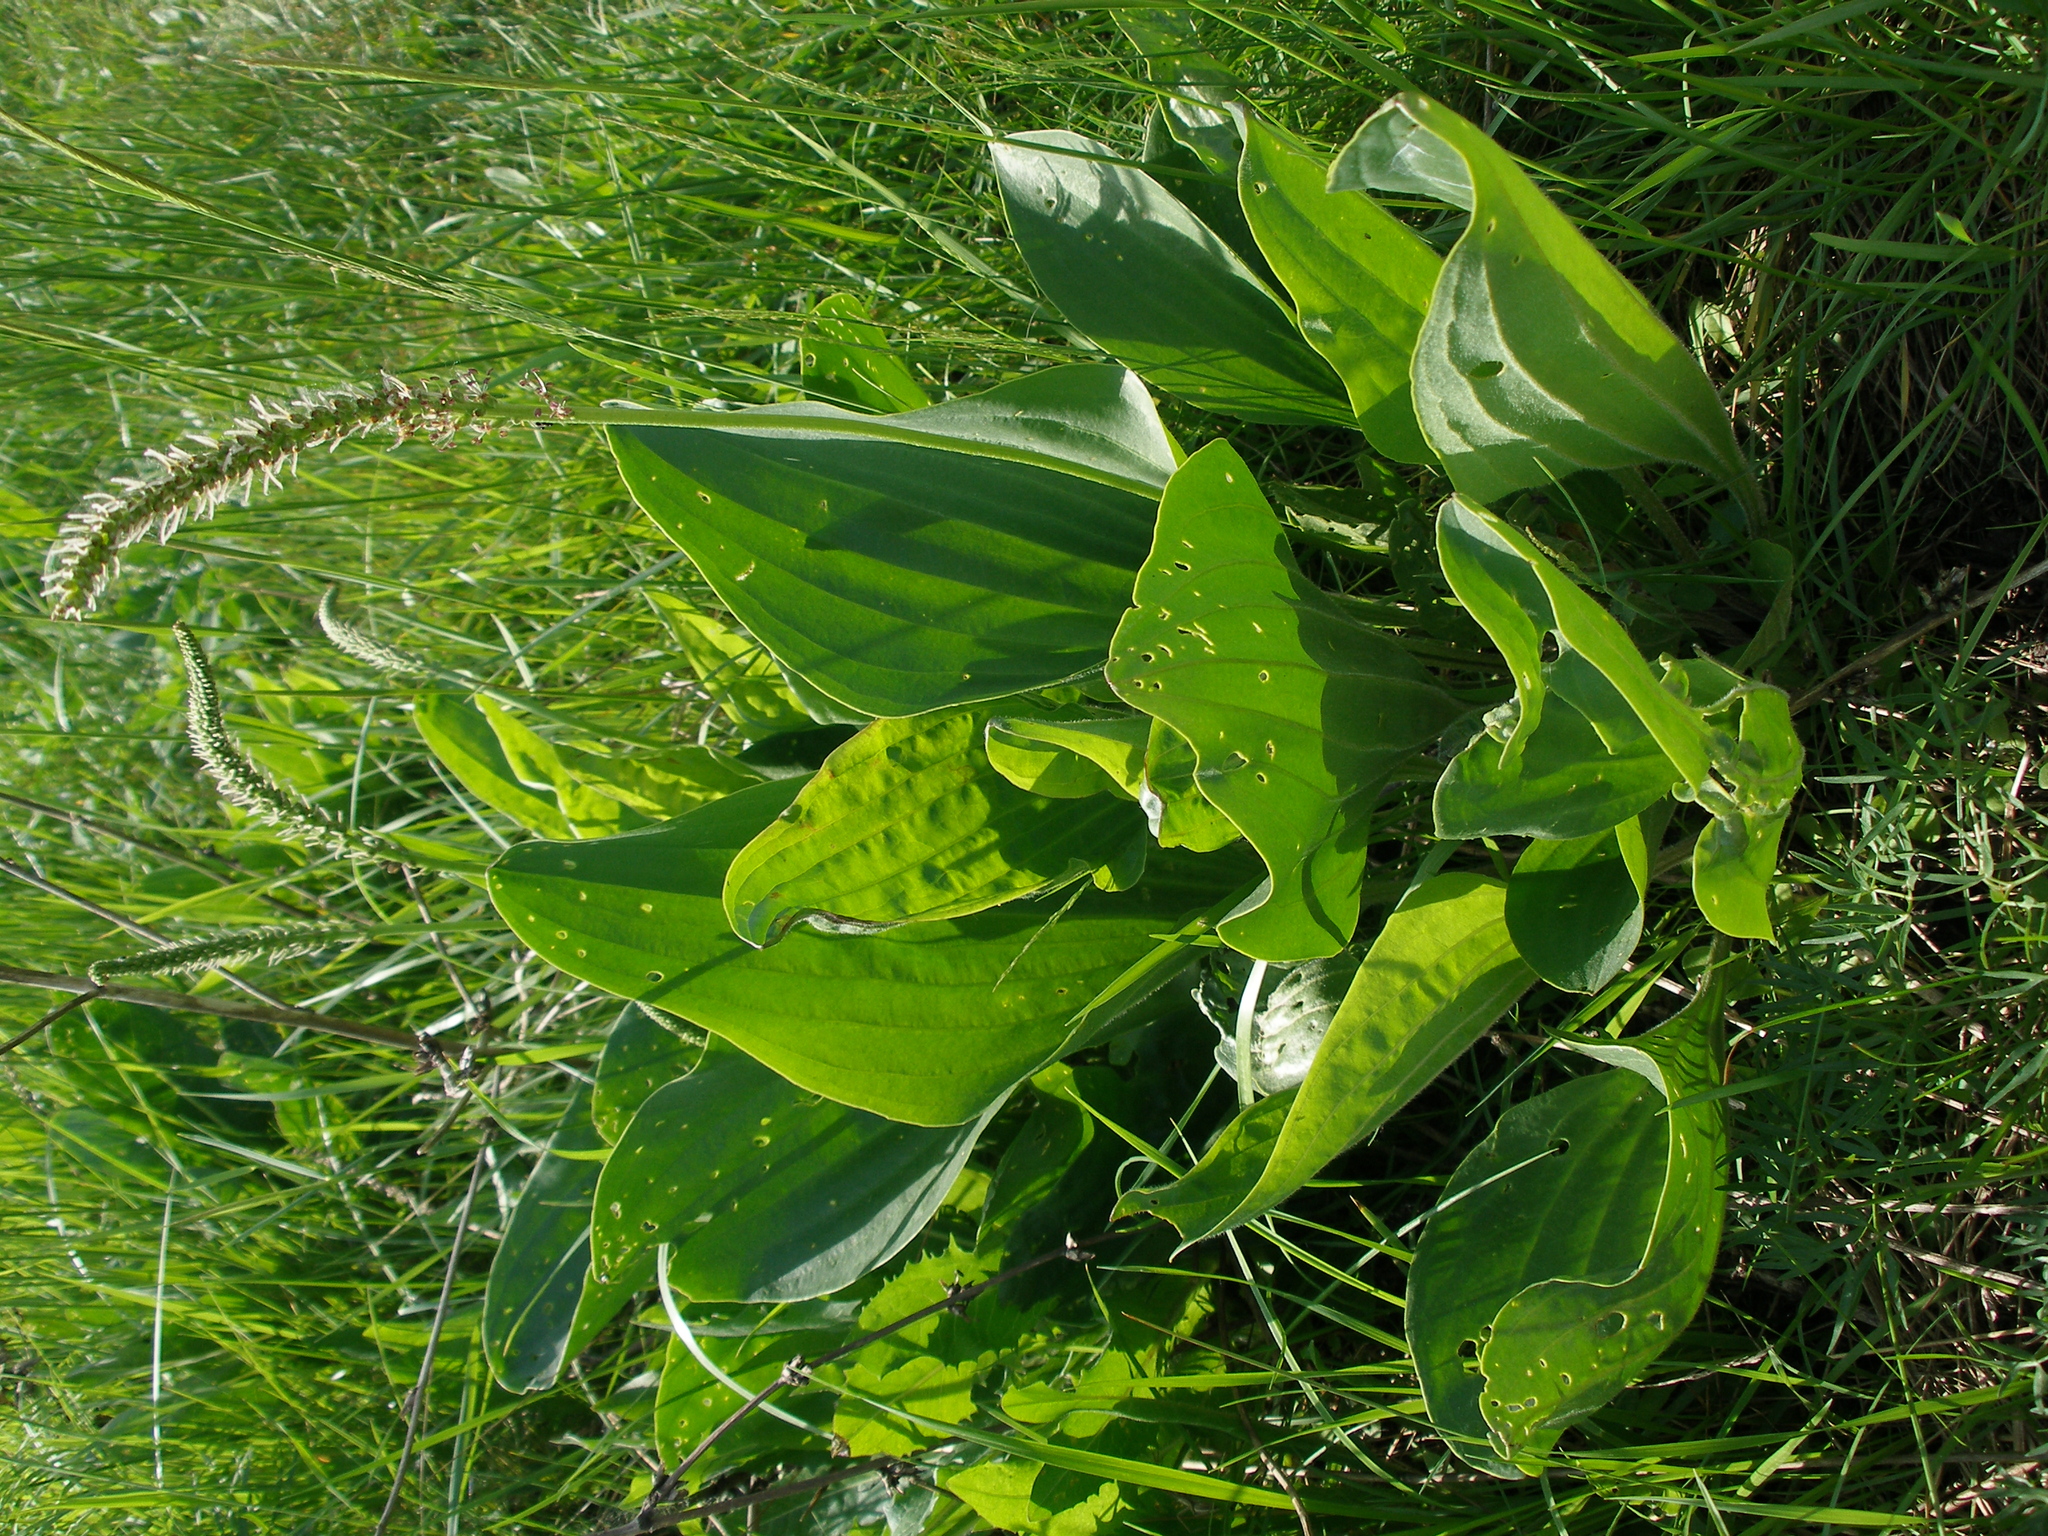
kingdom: Plantae
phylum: Tracheophyta
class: Magnoliopsida
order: Lamiales
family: Plantaginaceae
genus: Plantago
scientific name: Plantago cornuti
